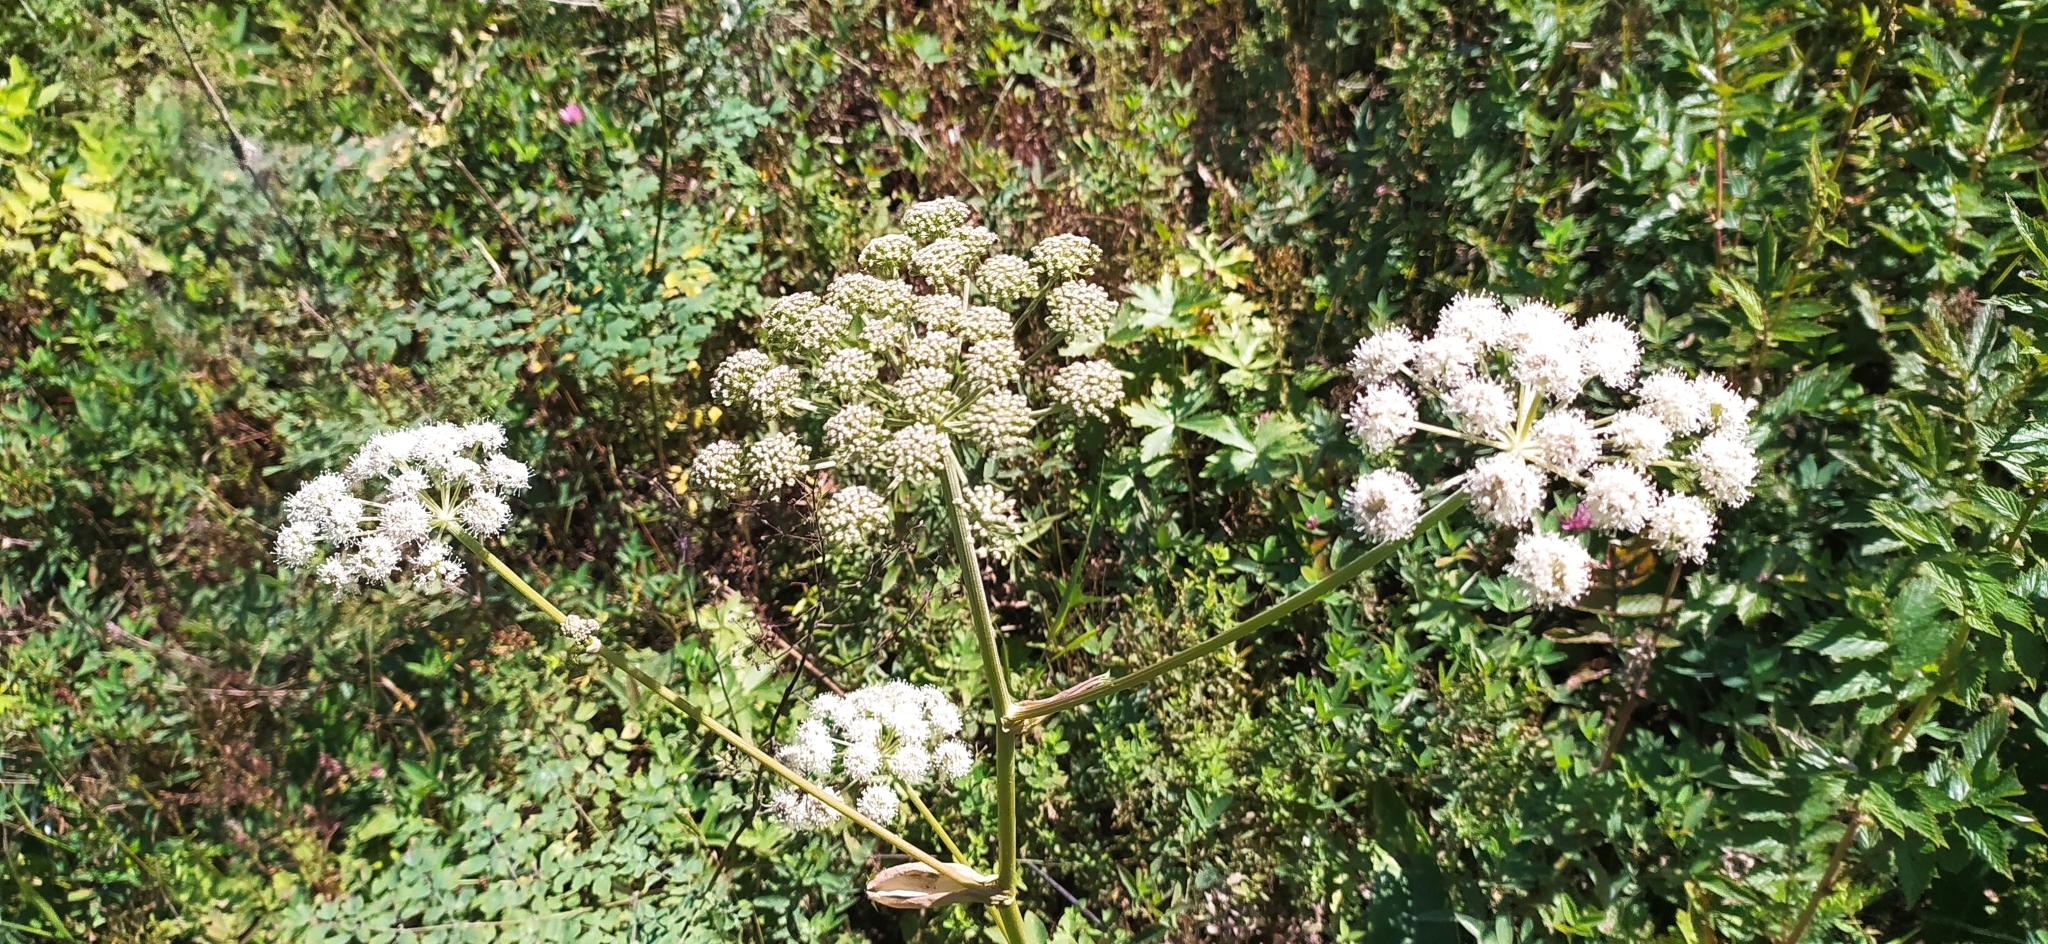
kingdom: Plantae
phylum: Tracheophyta
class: Magnoliopsida
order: Apiales
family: Apiaceae
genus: Angelica
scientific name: Angelica sylvestris
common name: Wild angelica
